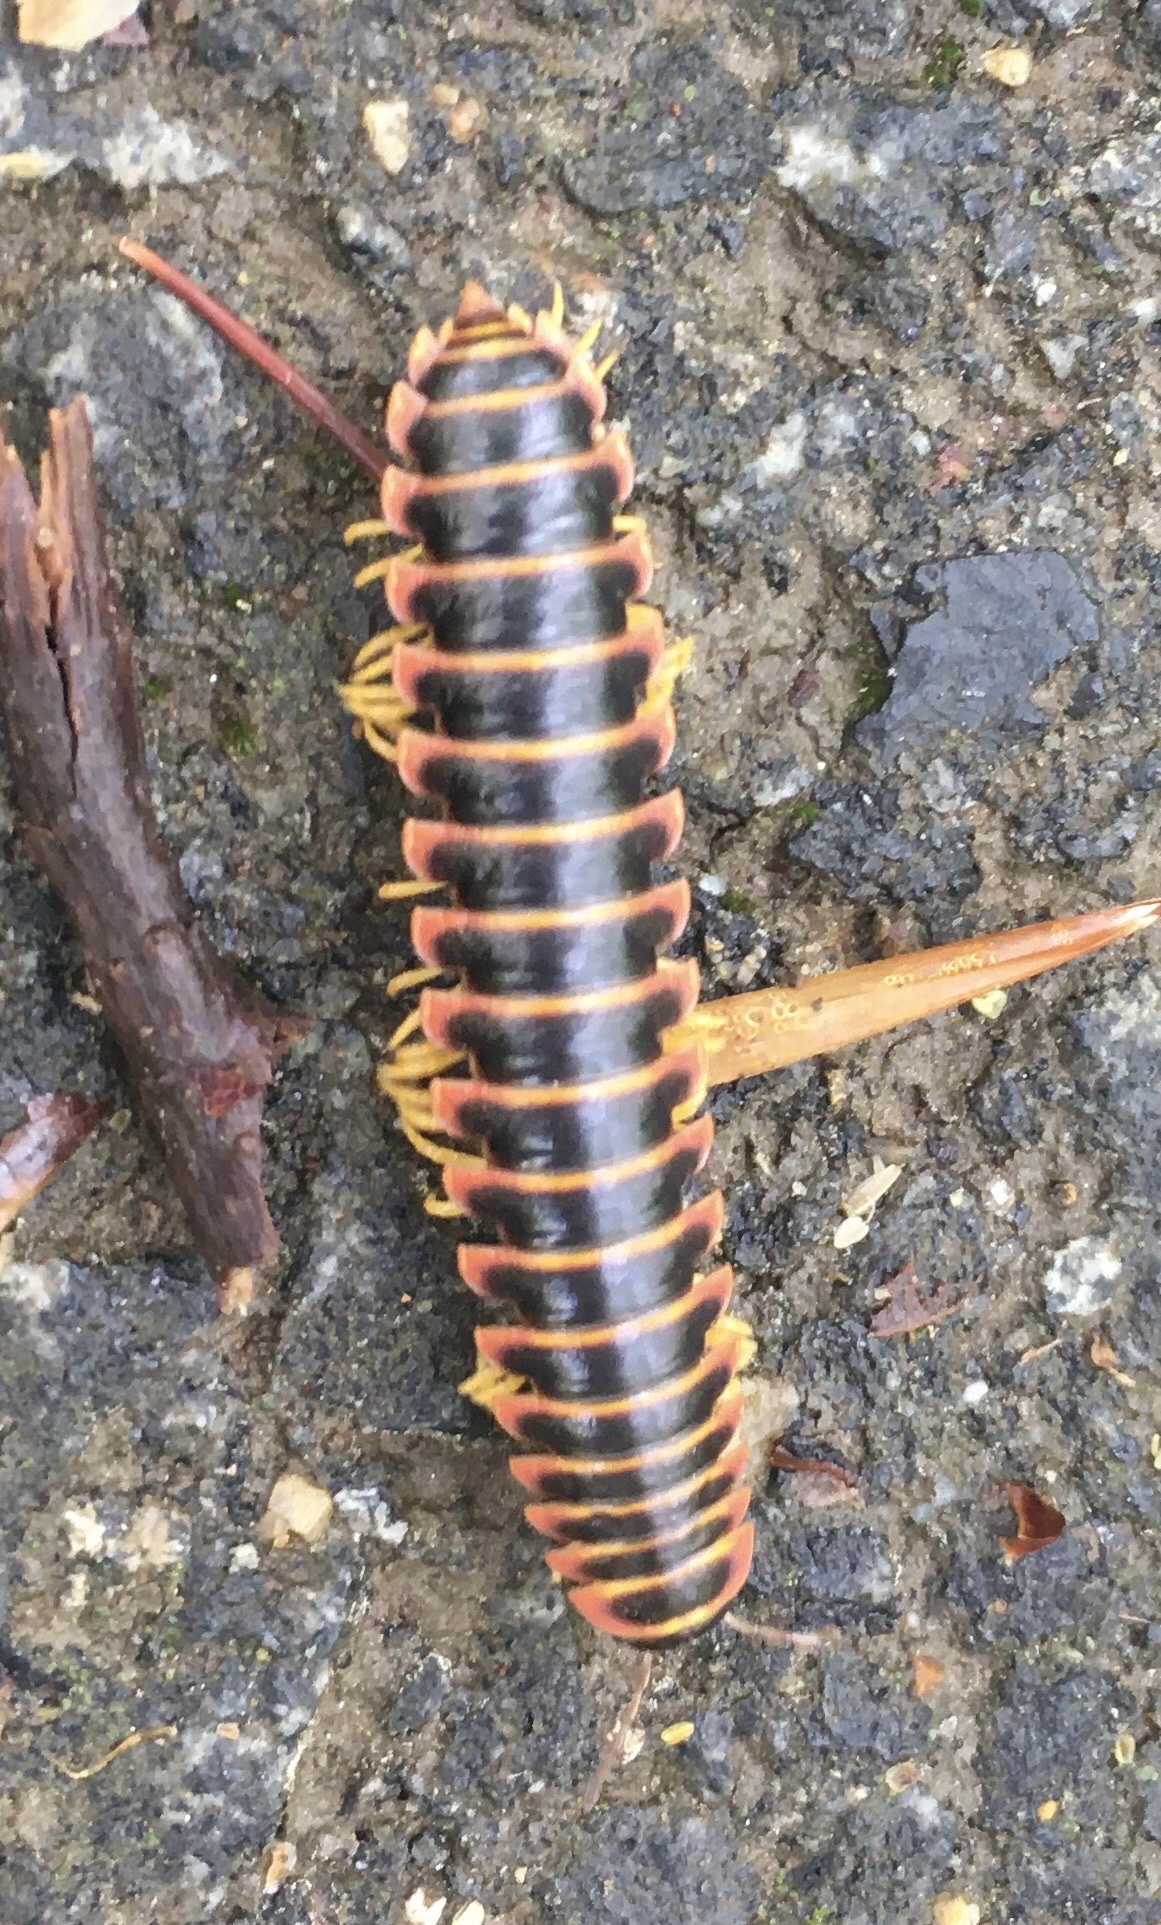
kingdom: Animalia
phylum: Arthropoda
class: Diplopoda
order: Polydesmida
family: Xystodesmidae
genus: Apheloria
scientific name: Apheloria virginiensis
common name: Black-and-gold flat millipede
